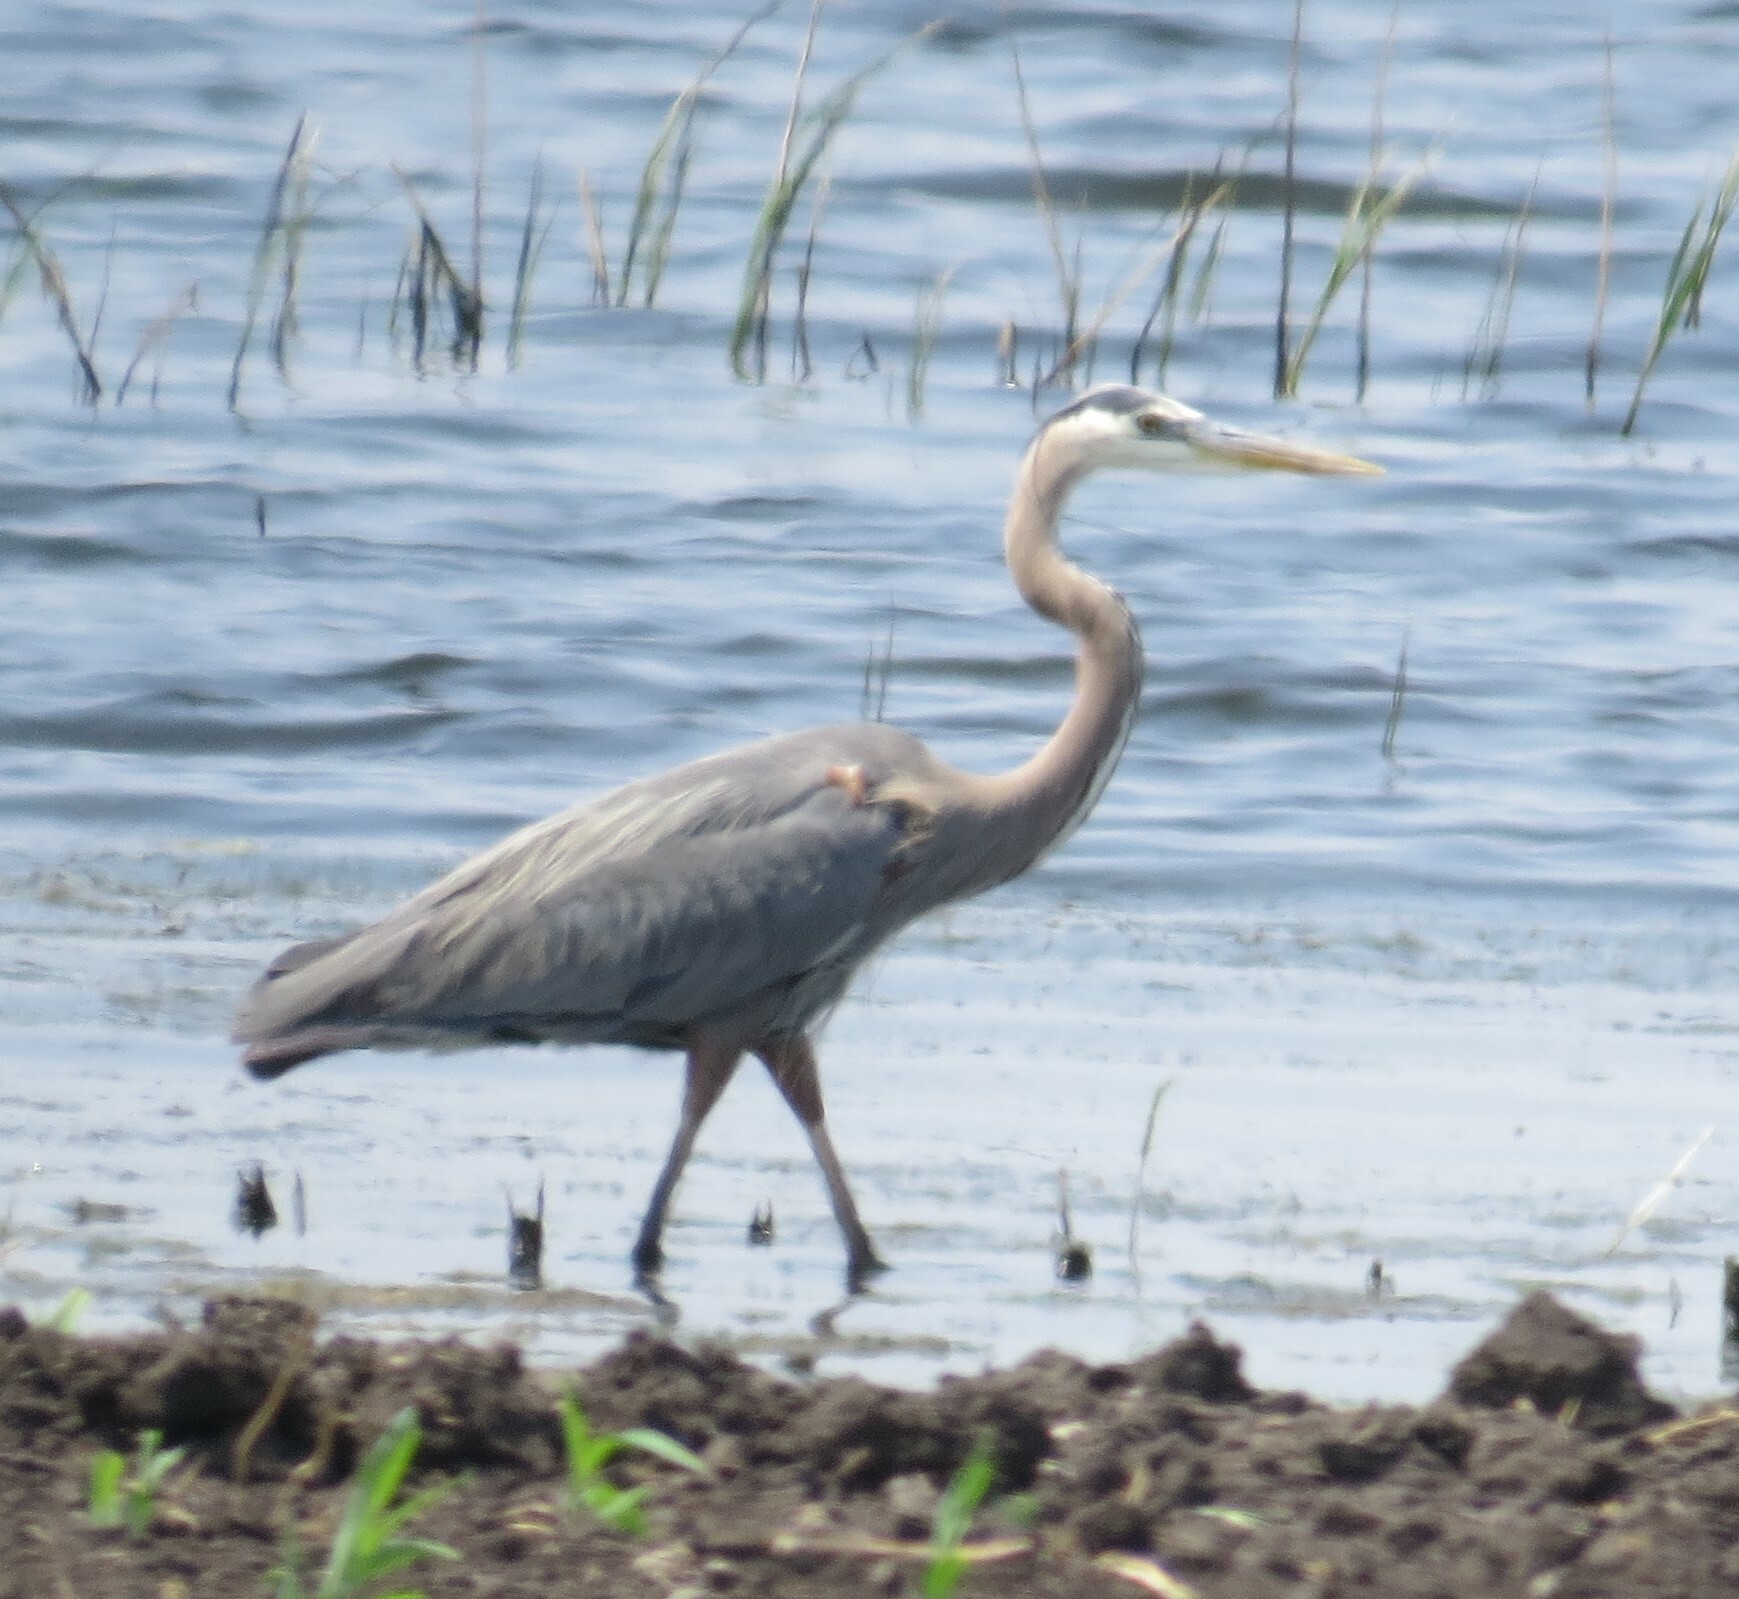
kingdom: Animalia
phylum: Chordata
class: Aves
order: Pelecaniformes
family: Ardeidae
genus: Ardea
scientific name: Ardea herodias
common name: Great blue heron
